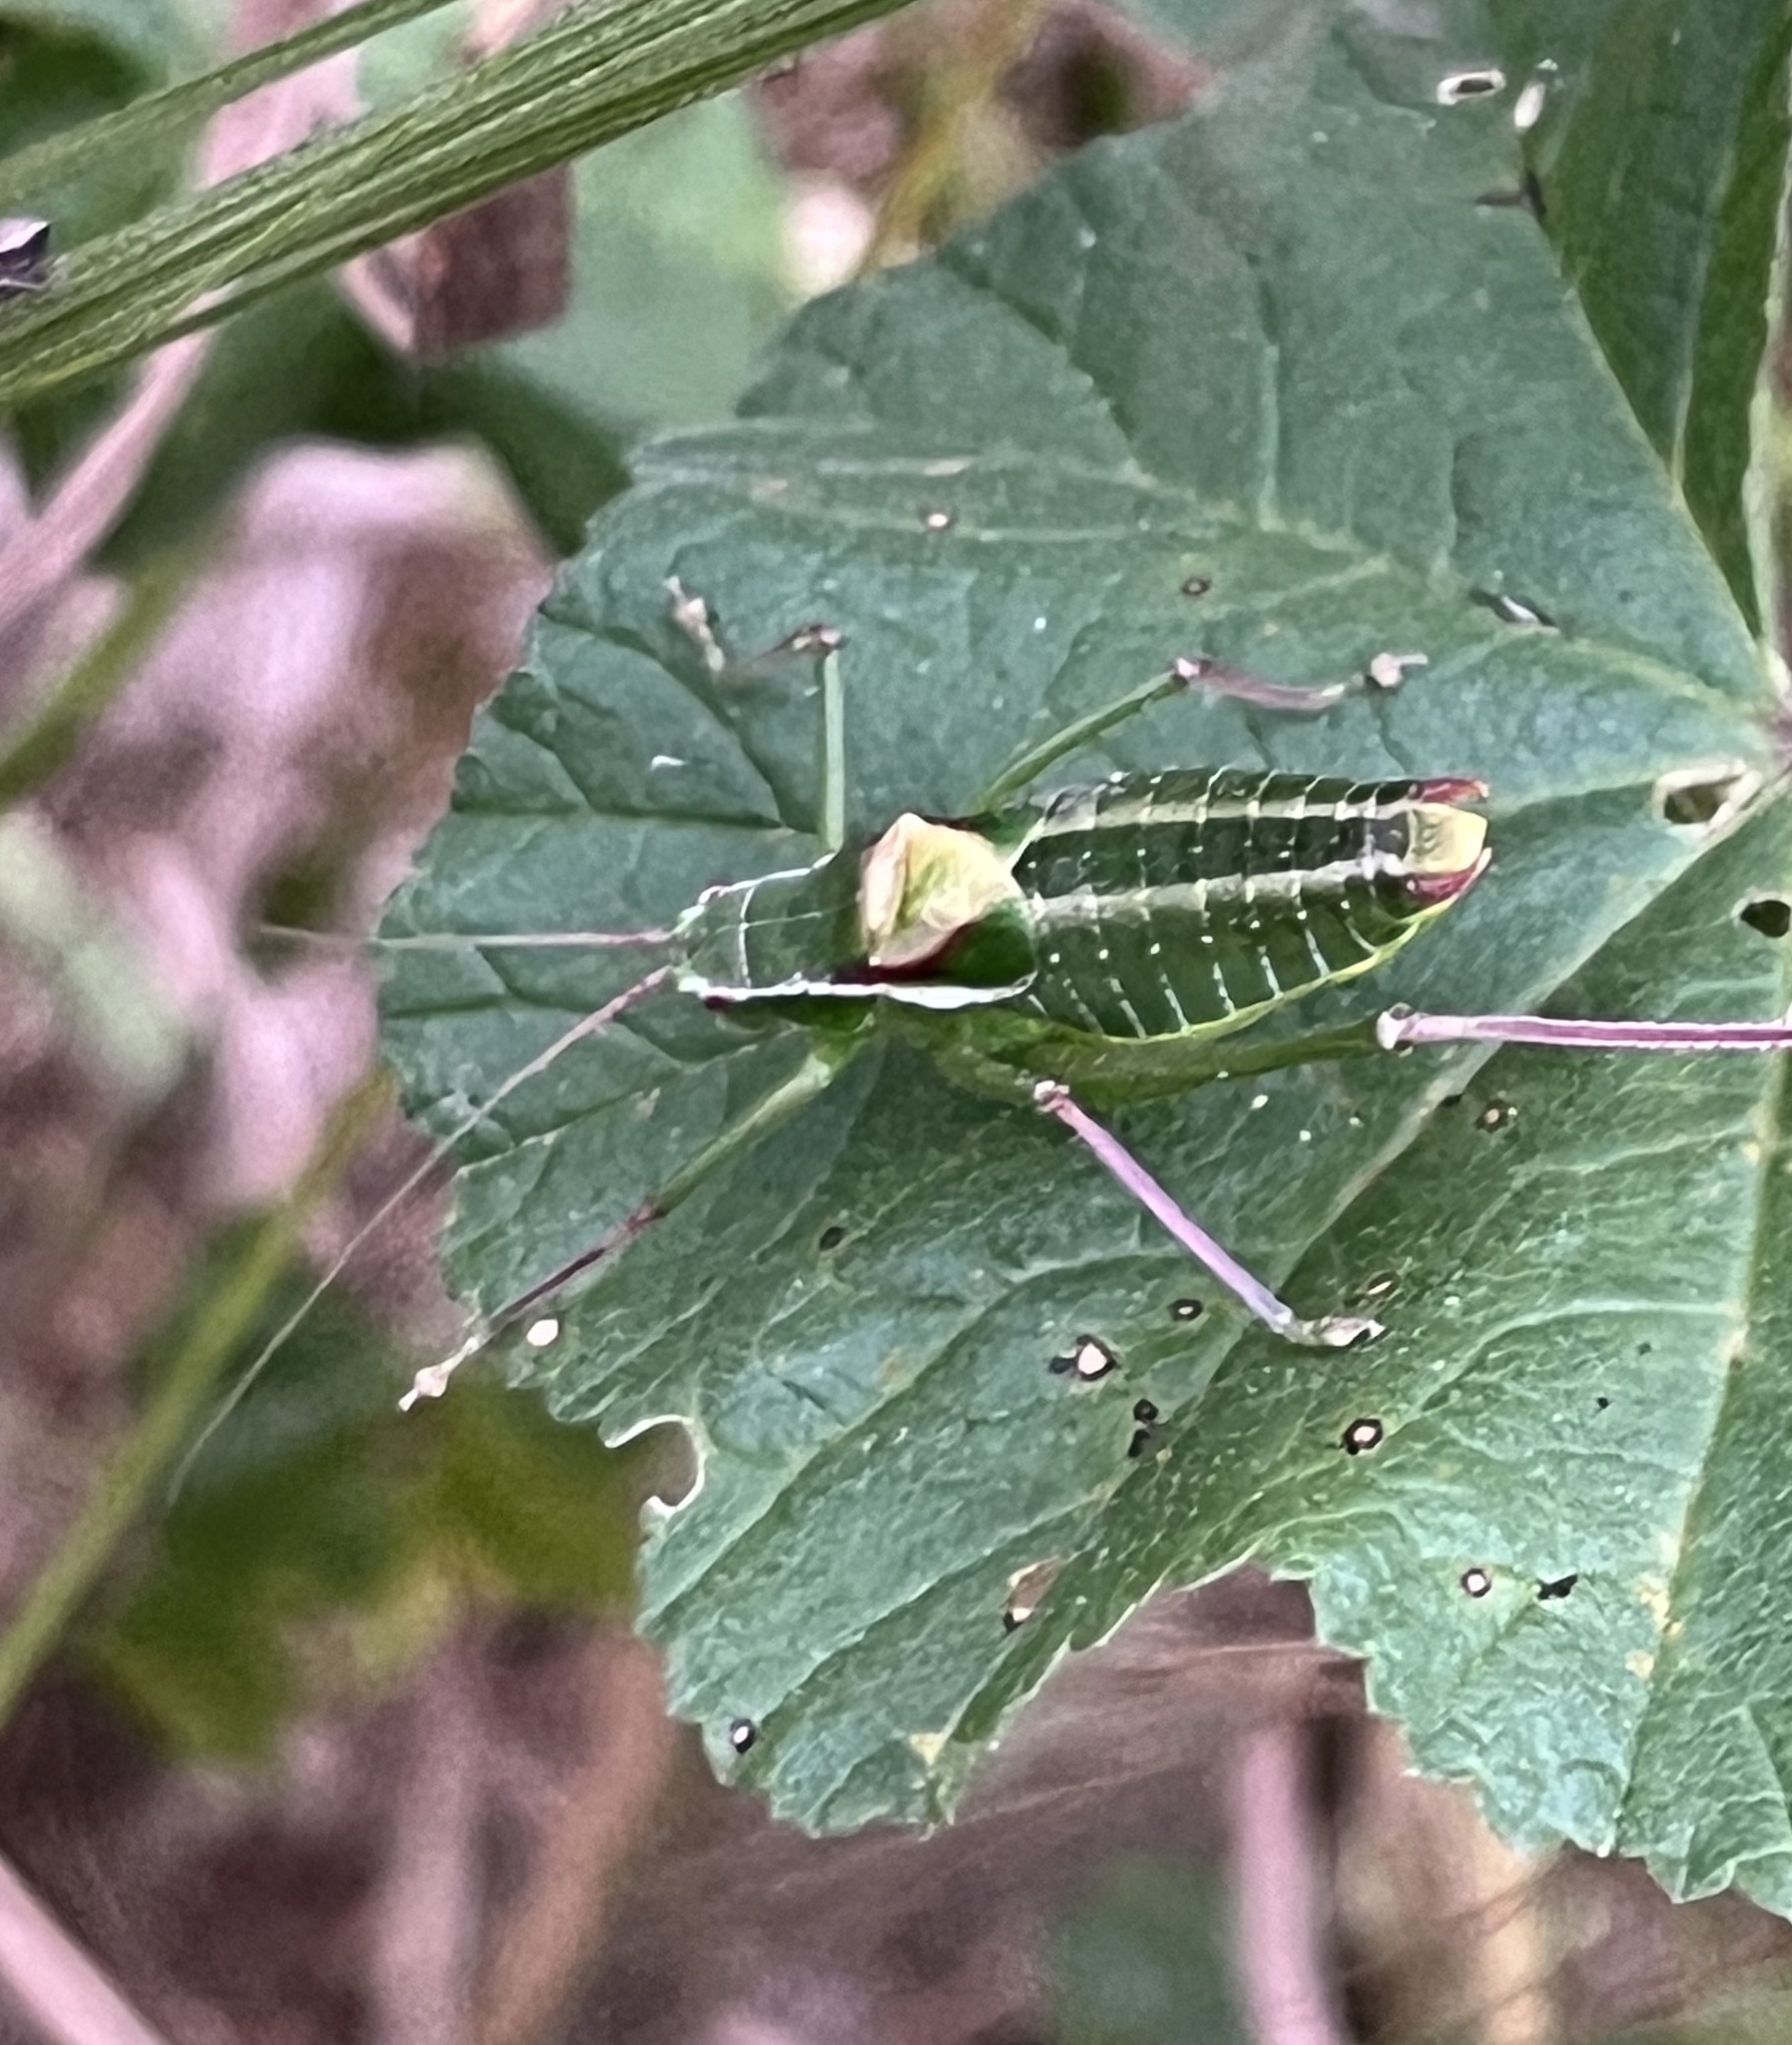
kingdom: Animalia
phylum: Arthropoda
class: Insecta
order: Orthoptera
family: Tettigoniidae
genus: Isophya
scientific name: Isophya savignyi
